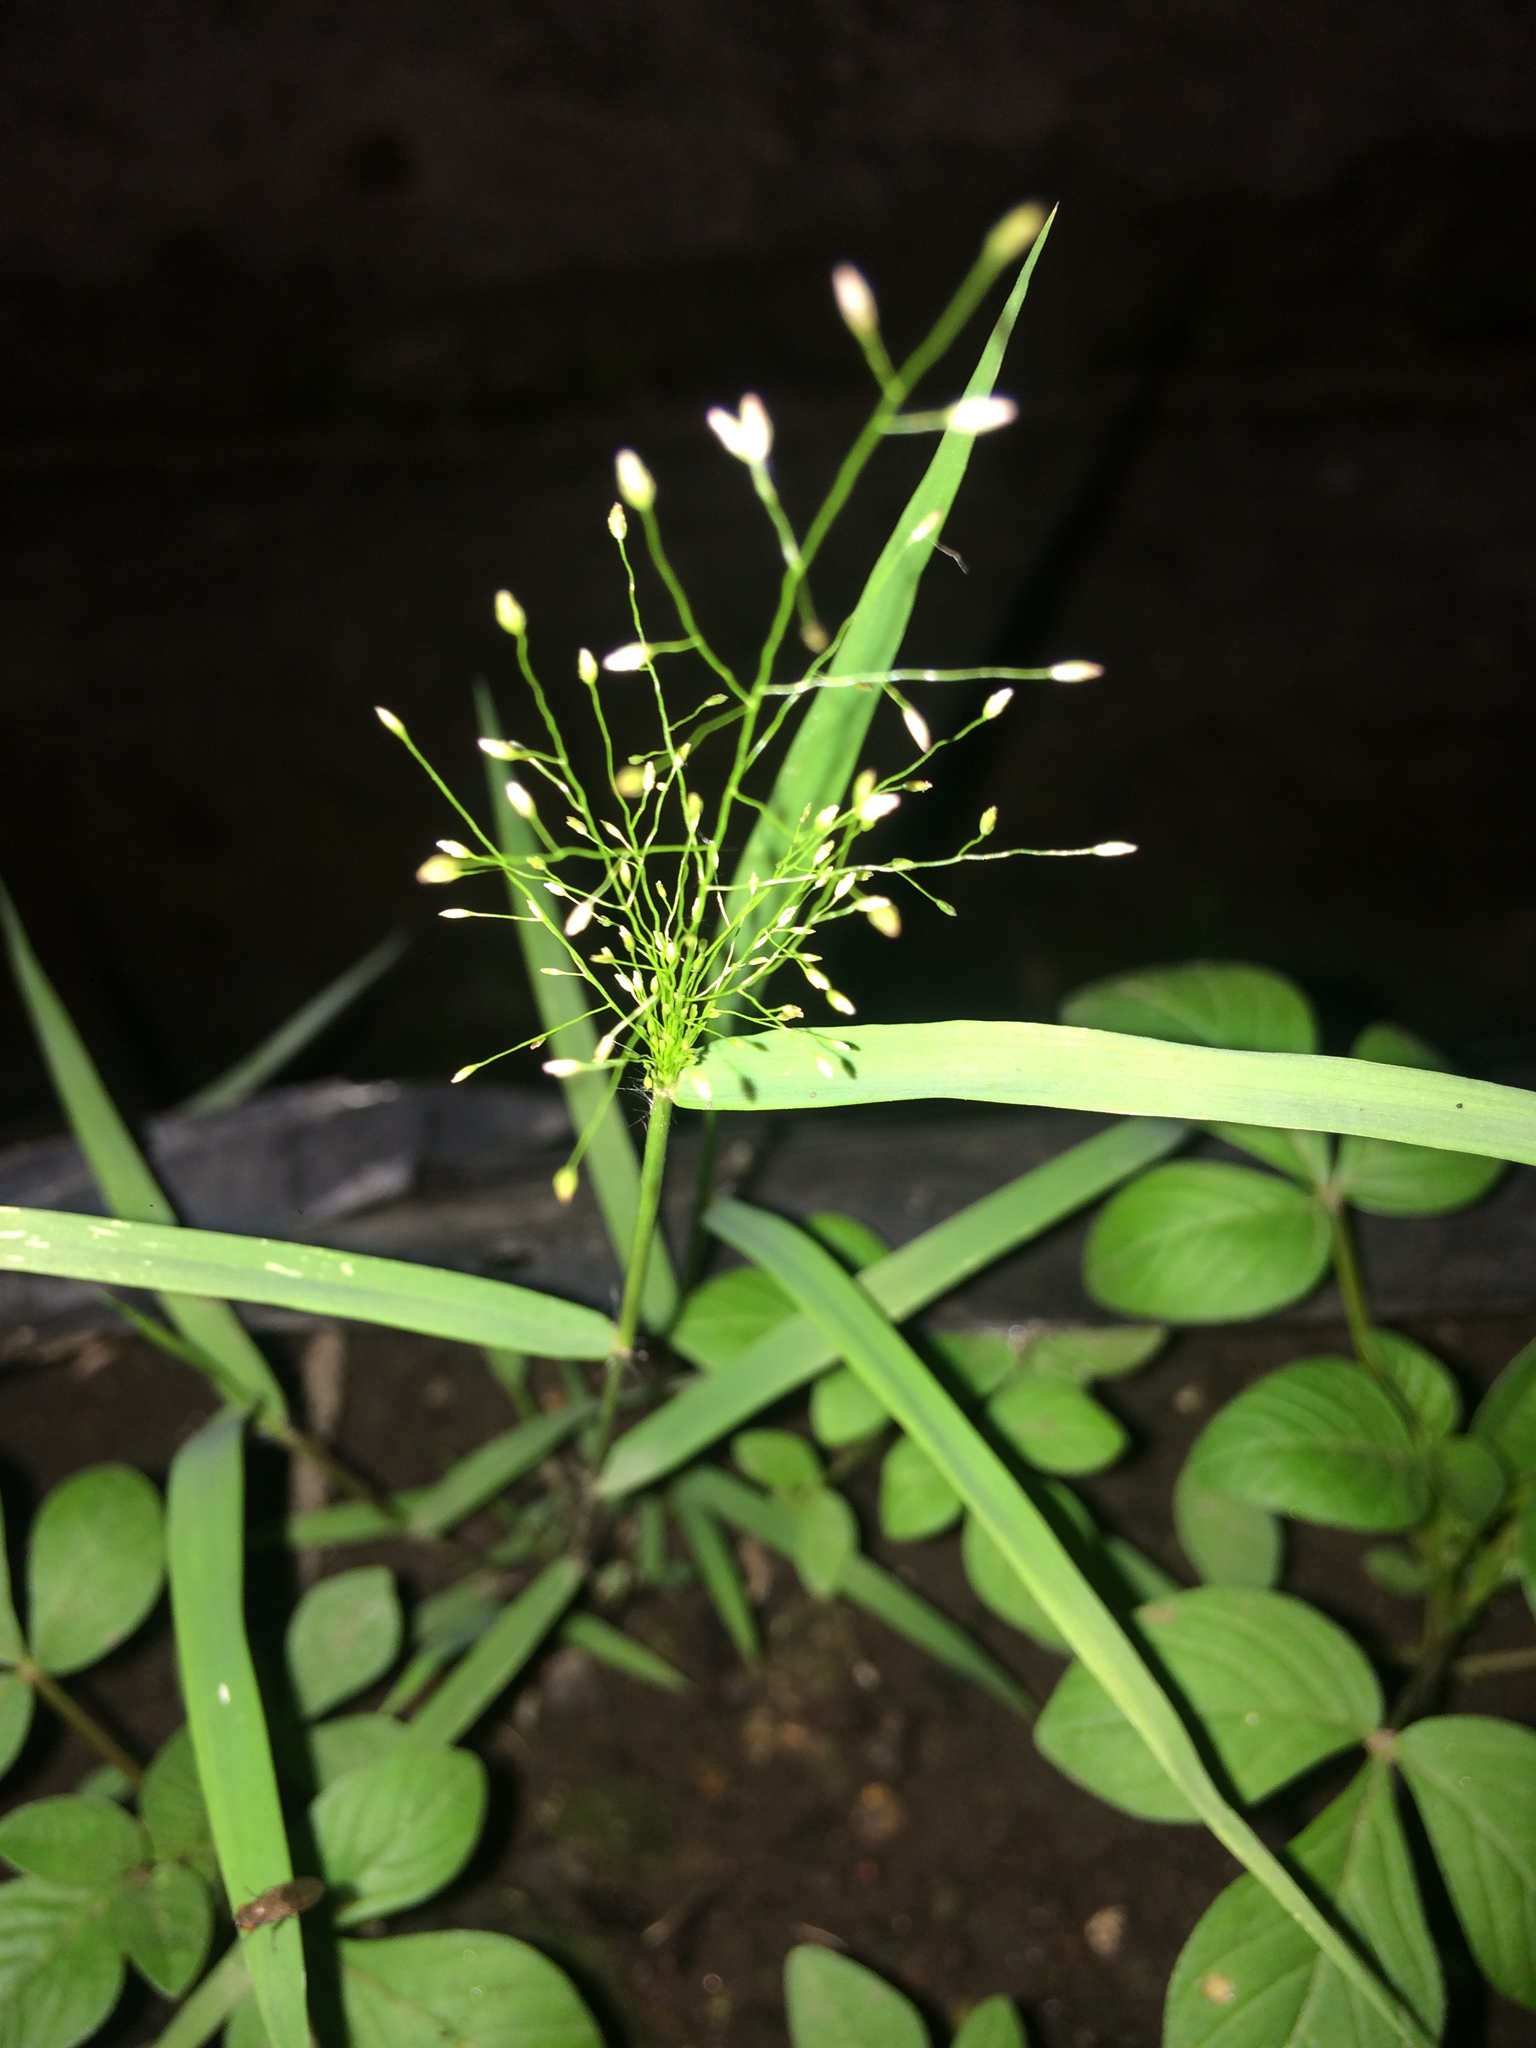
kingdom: Plantae
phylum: Tracheophyta
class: Liliopsida
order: Poales
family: Poaceae
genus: Eragrostis
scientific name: Eragrostis tenella
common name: Japanese lovegrass
